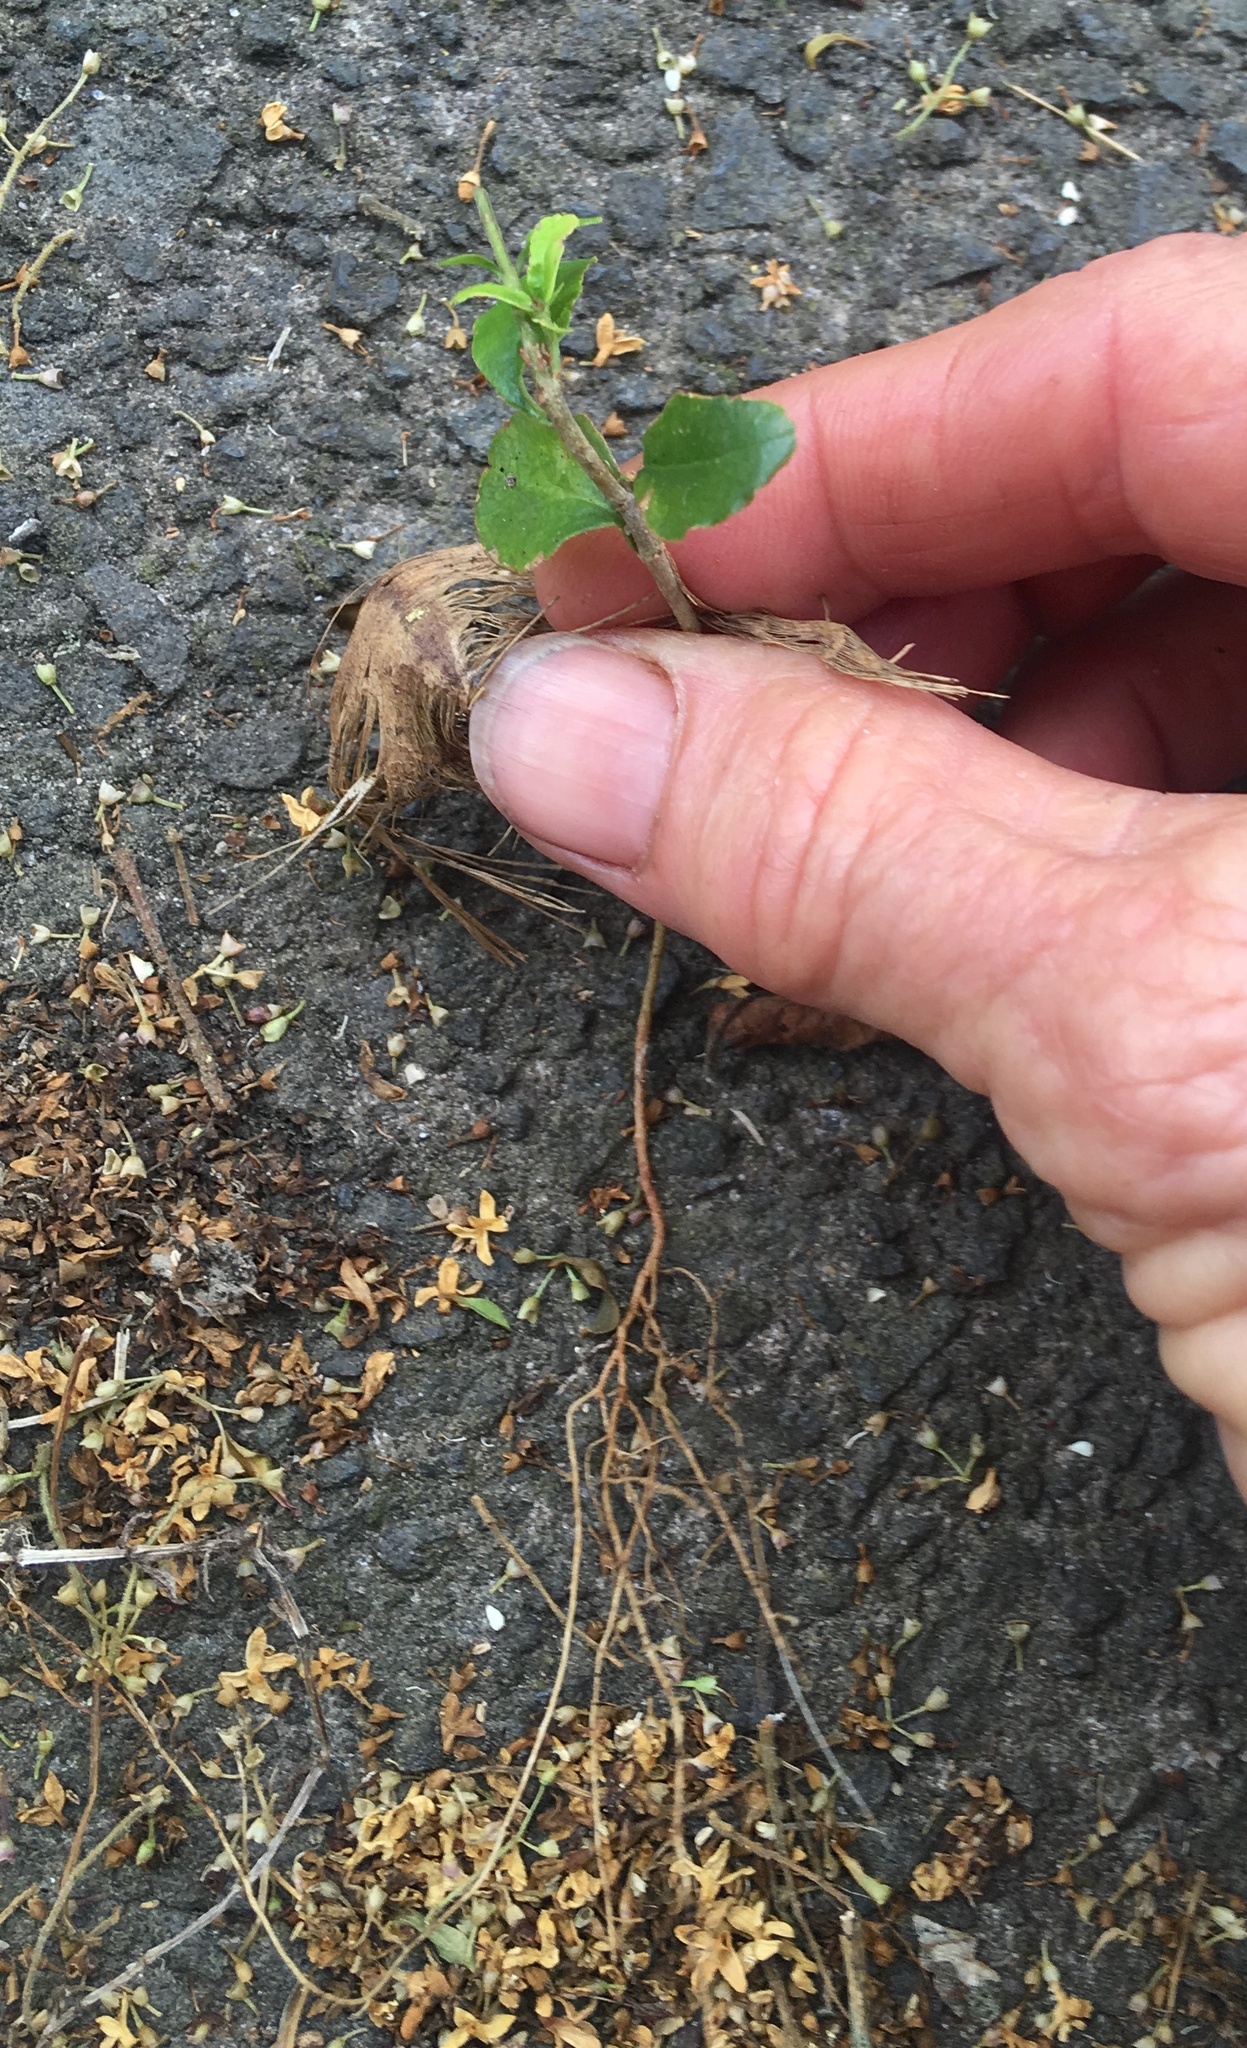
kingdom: Plantae
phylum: Tracheophyta
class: Liliopsida
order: Arecales
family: Arecaceae
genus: Rhopalostylis
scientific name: Rhopalostylis sapida
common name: Feather-duster palm
